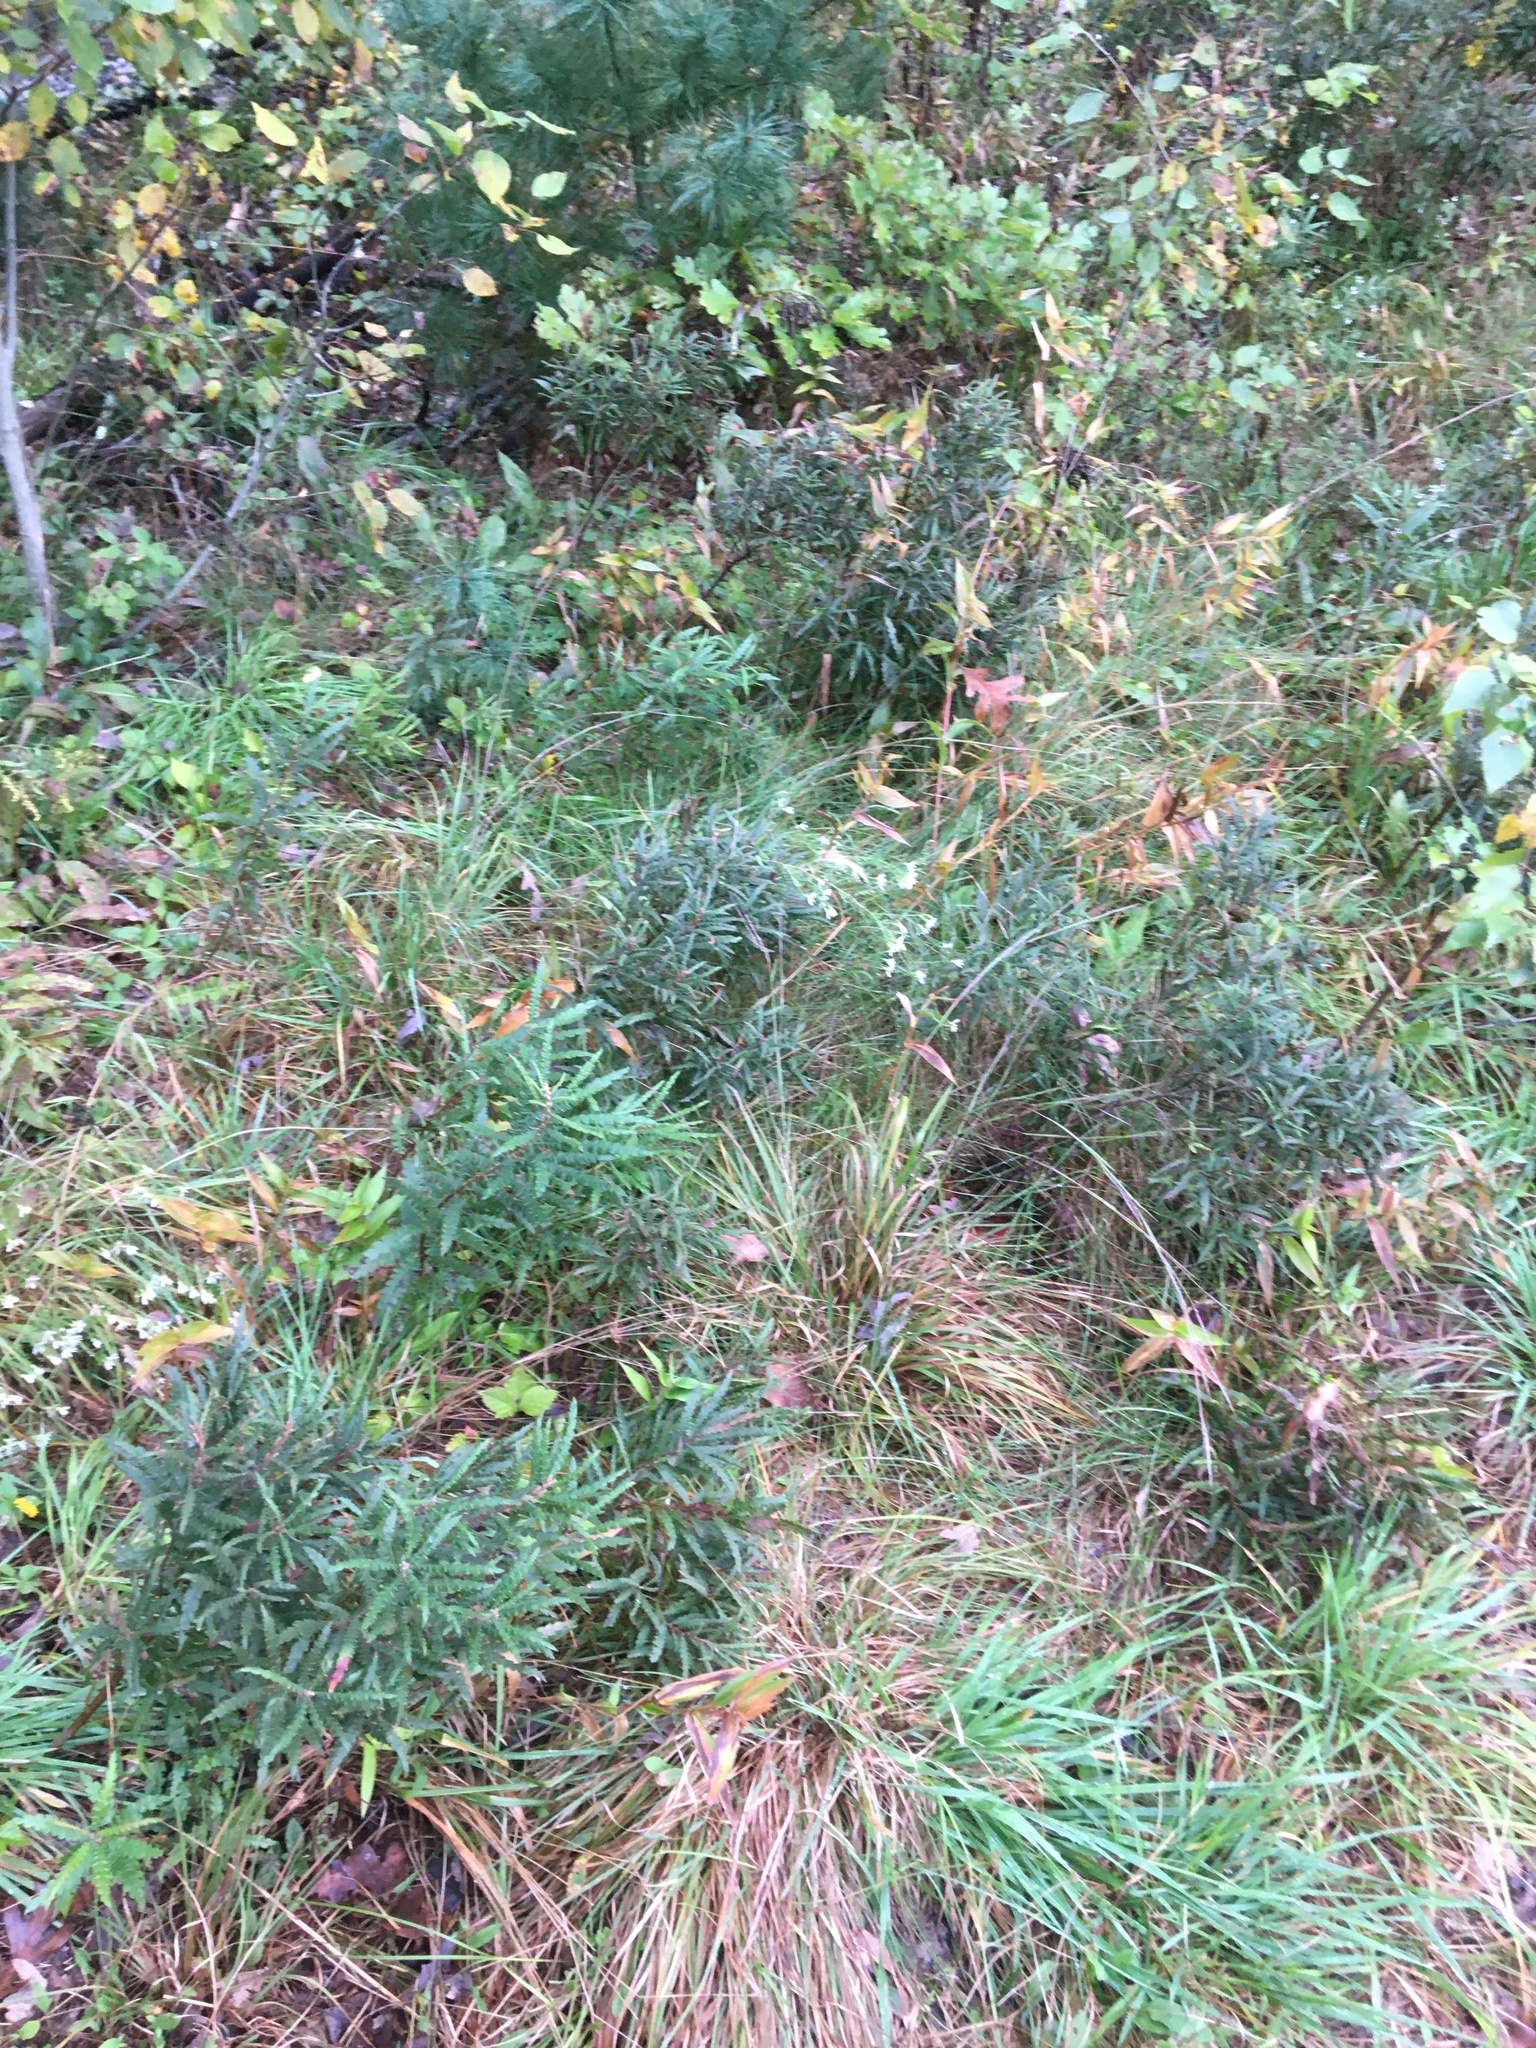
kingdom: Plantae
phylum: Tracheophyta
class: Magnoliopsida
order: Fagales
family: Myricaceae
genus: Comptonia
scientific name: Comptonia peregrina
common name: Sweet-fern
